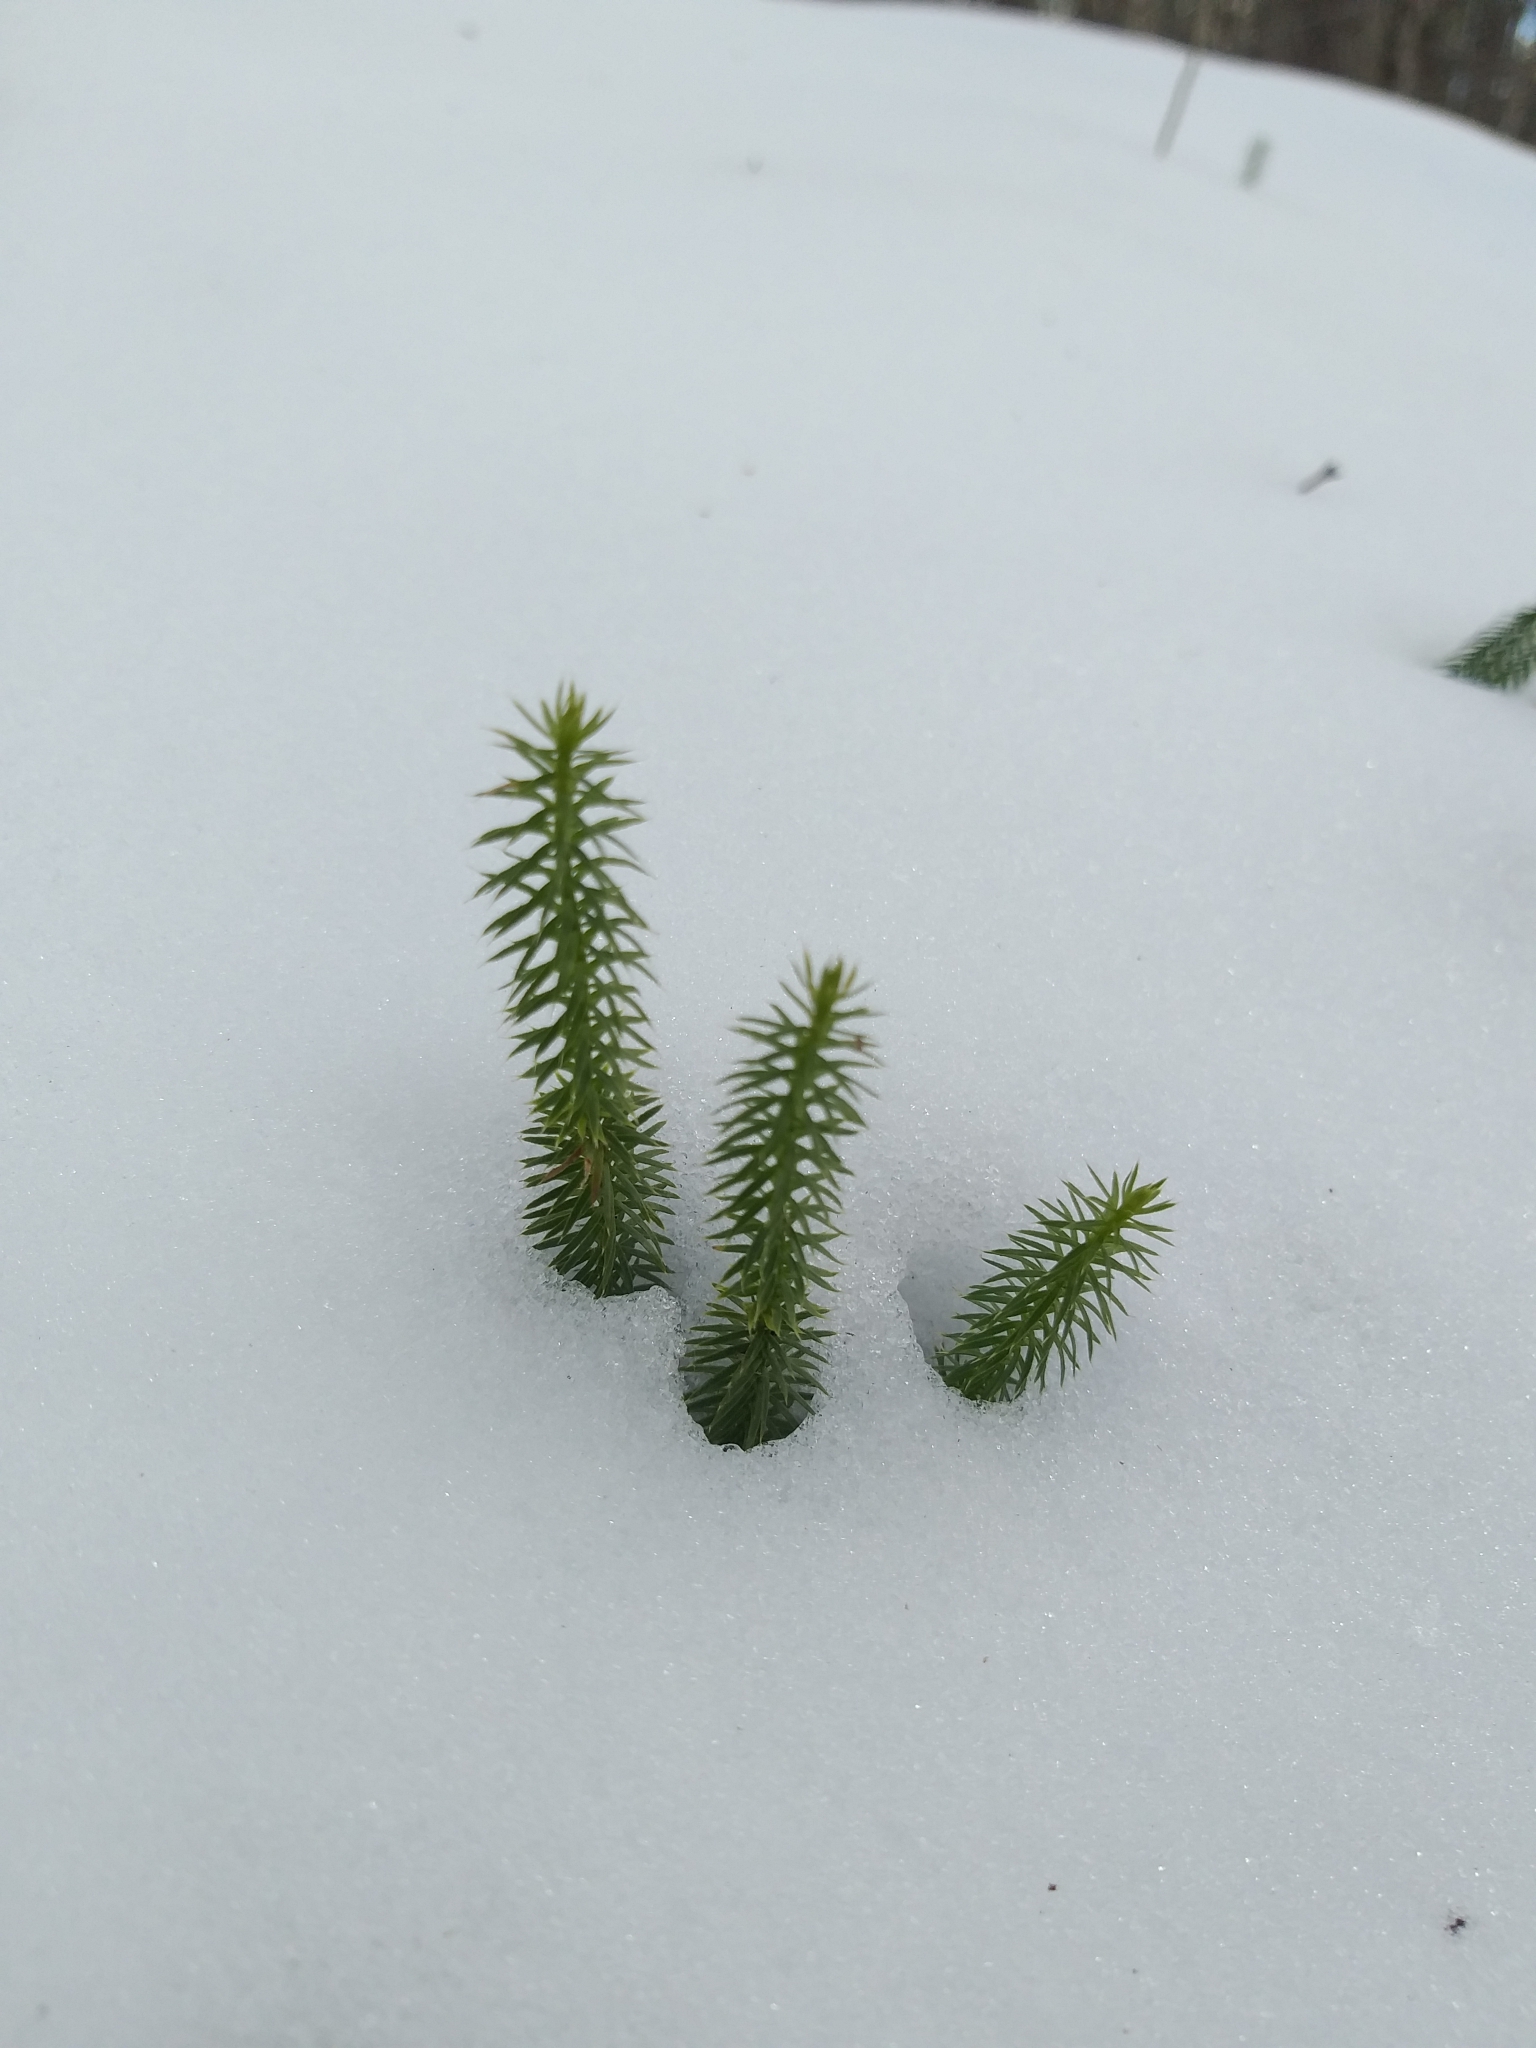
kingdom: Plantae
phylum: Tracheophyta
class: Lycopodiopsida
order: Lycopodiales
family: Lycopodiaceae
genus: Spinulum
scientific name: Spinulum annotinum
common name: Interrupted club-moss
